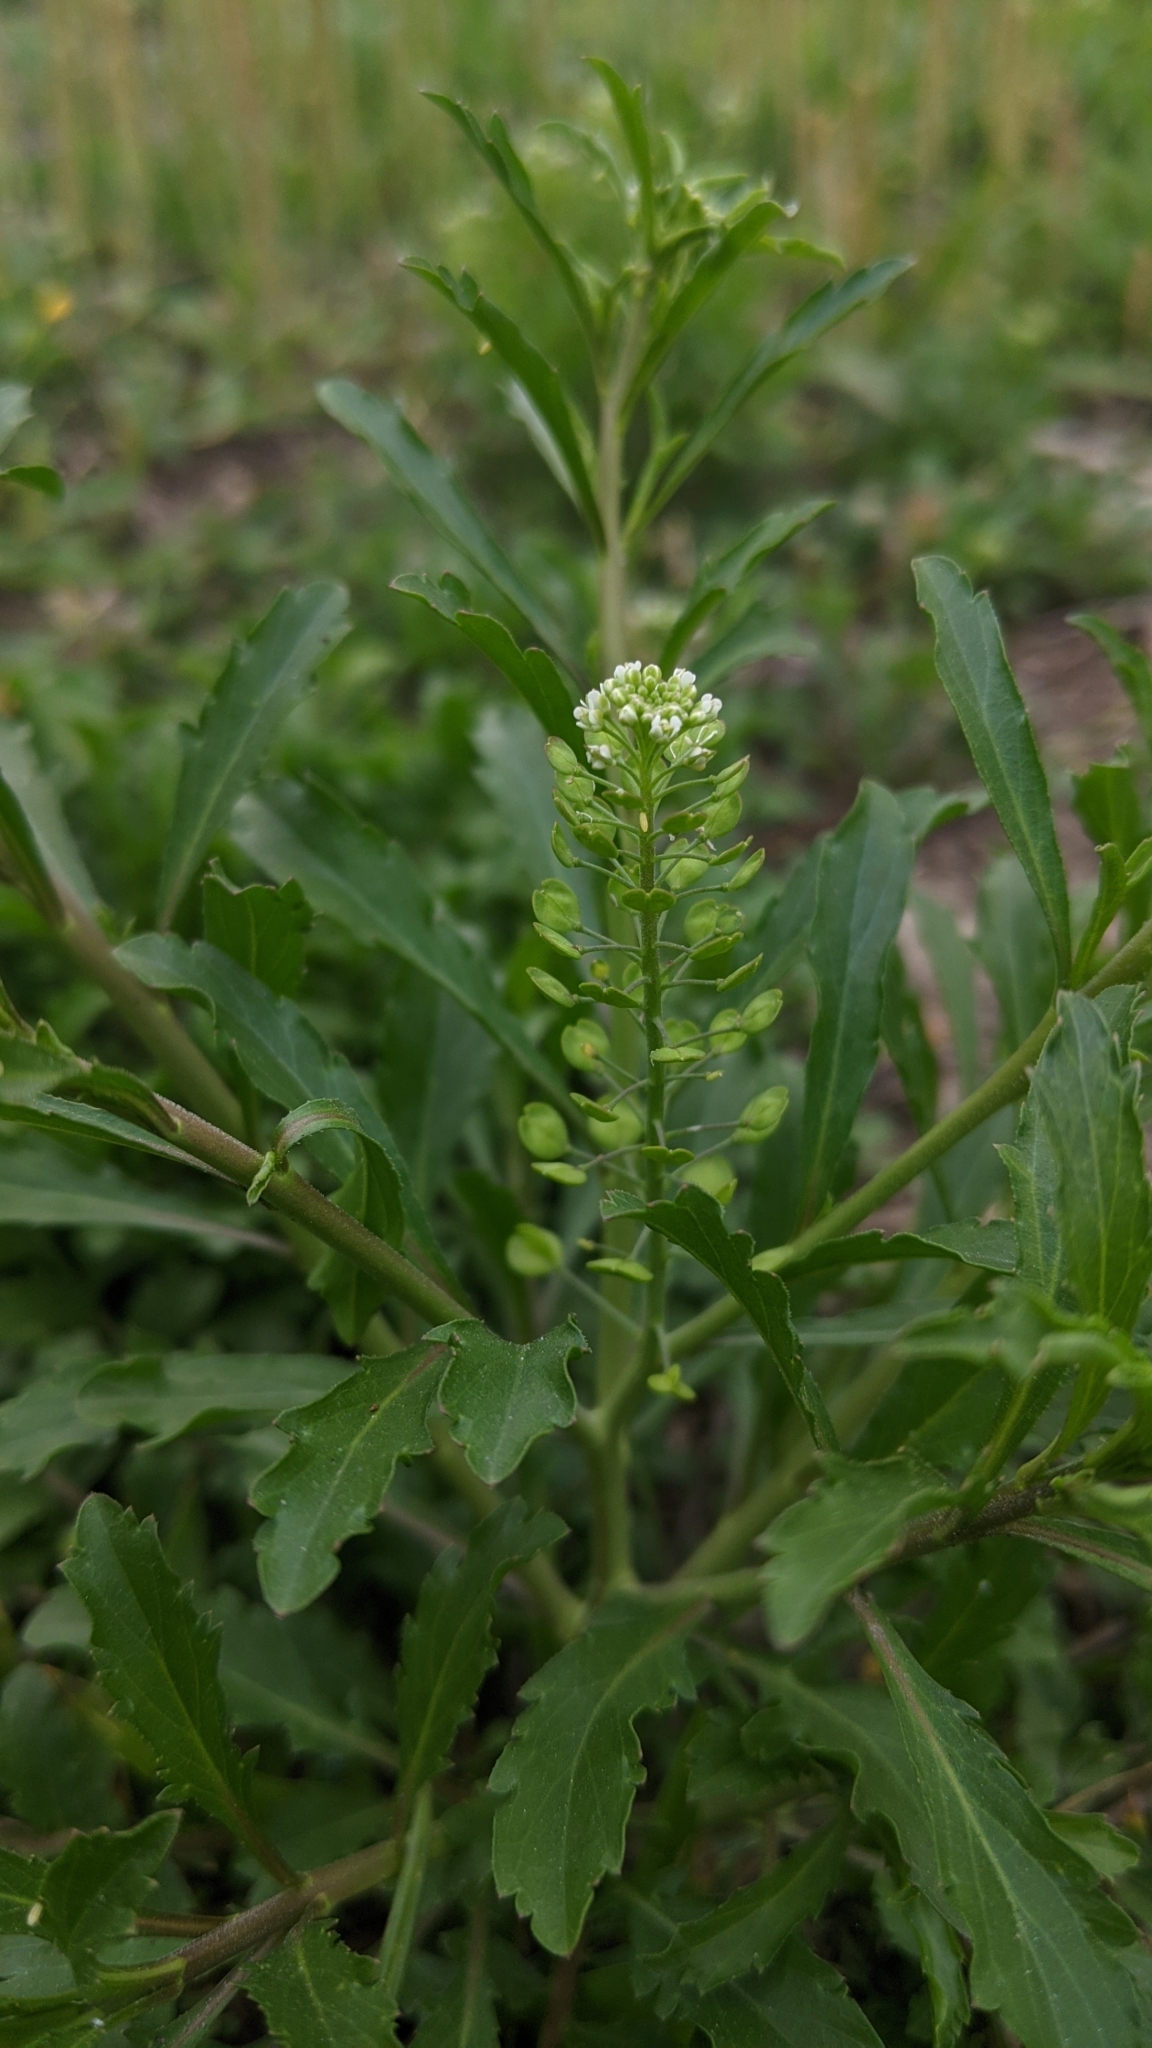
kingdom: Plantae
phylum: Tracheophyta
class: Magnoliopsida
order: Brassicales
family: Brassicaceae
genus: Lepidium
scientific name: Lepidium virginicum
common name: Least pepperwort
